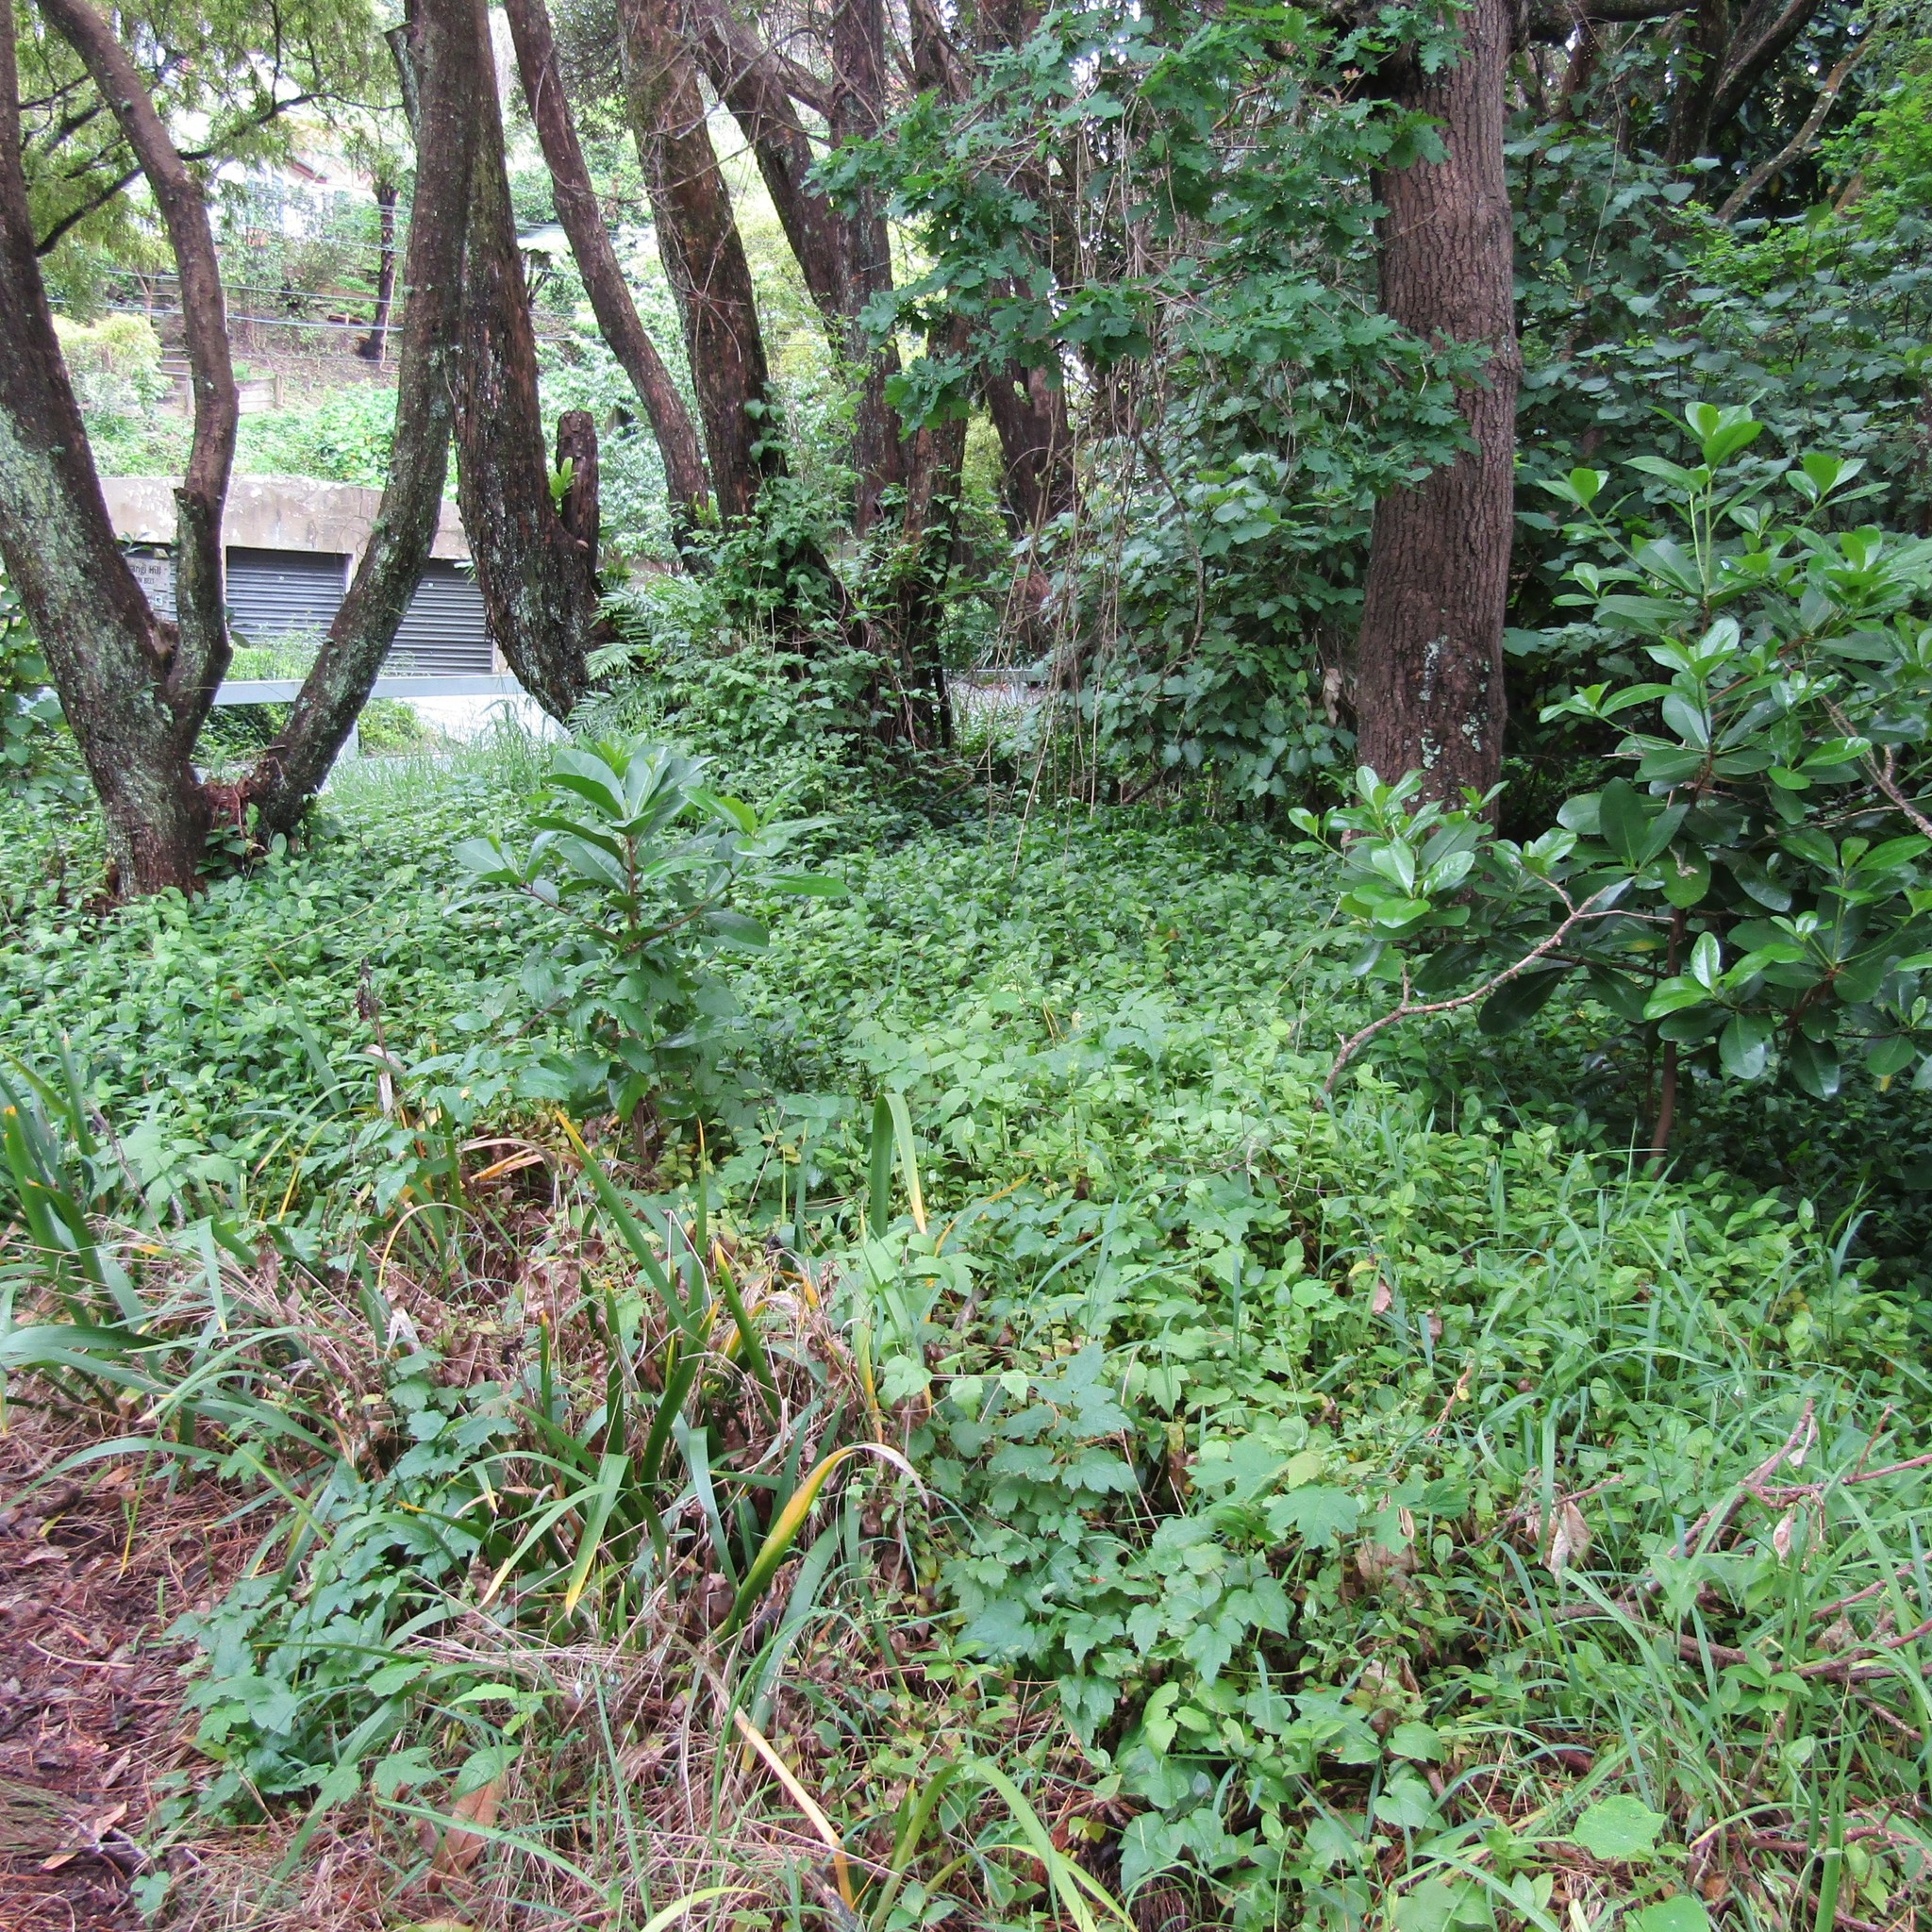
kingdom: Plantae
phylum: Tracheophyta
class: Magnoliopsida
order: Ranunculales
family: Ranunculaceae
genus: Clematis
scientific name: Clematis vitalba
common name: Evergreen clematis
